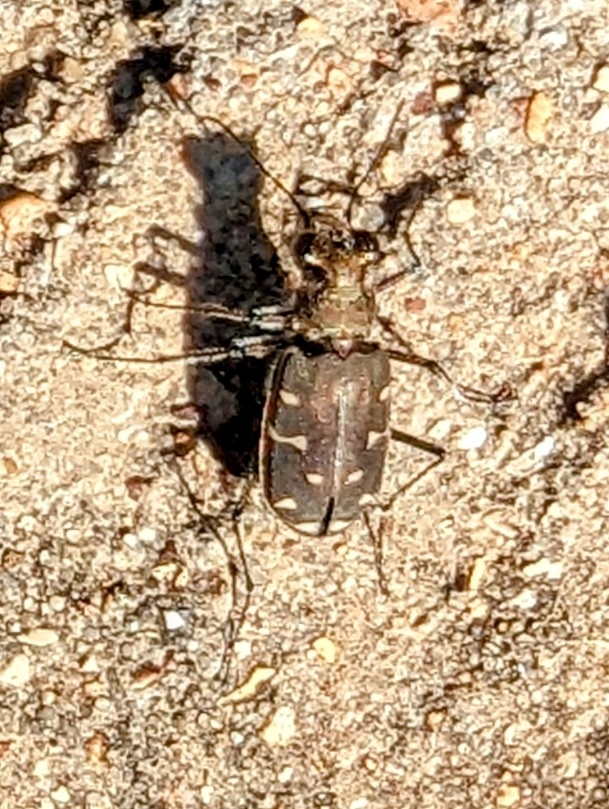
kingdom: Animalia
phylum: Arthropoda
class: Insecta
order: Coleoptera
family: Carabidae
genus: Cicindela
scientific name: Cicindela duodecimguttata
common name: Twelve-spotted tiger beetle
